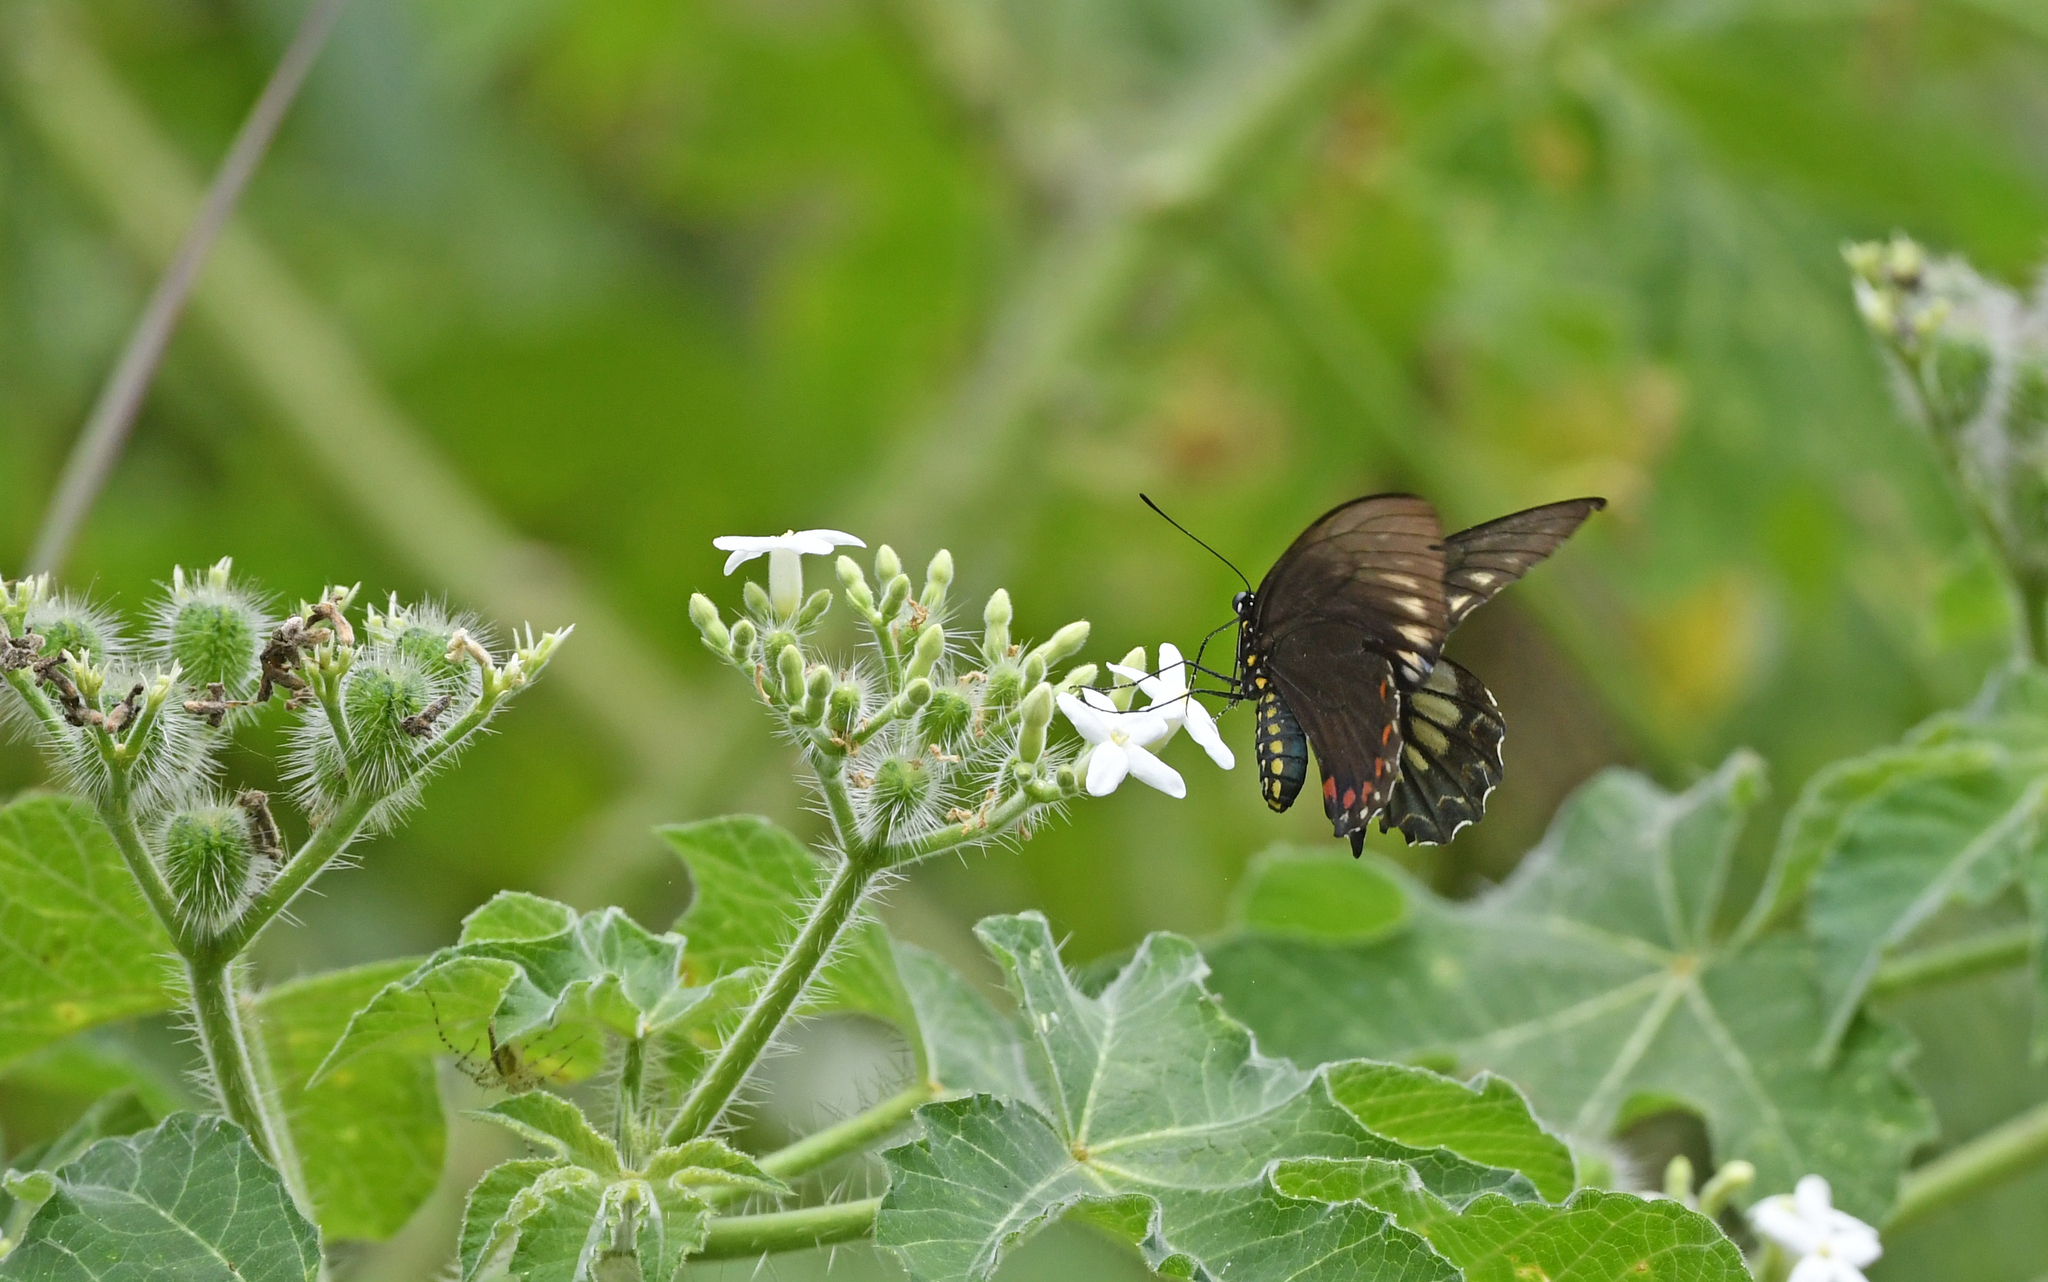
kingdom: Animalia
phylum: Arthropoda
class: Insecta
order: Lepidoptera
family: Papilionidae
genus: Battus
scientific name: Battus polydamas
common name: Polydamas swallowtail
